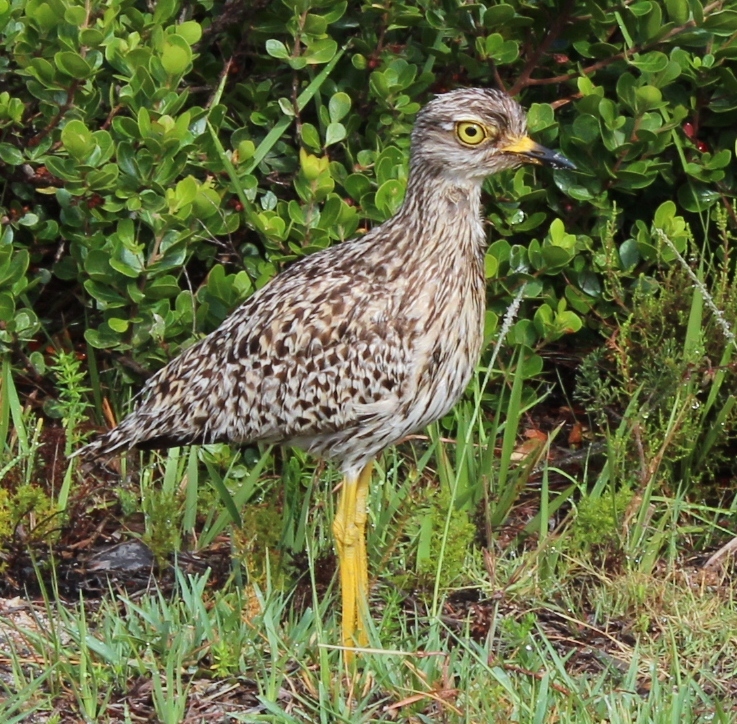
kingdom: Animalia
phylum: Chordata
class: Aves
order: Charadriiformes
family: Burhinidae
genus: Burhinus
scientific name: Burhinus capensis
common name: Spotted thick-knee
